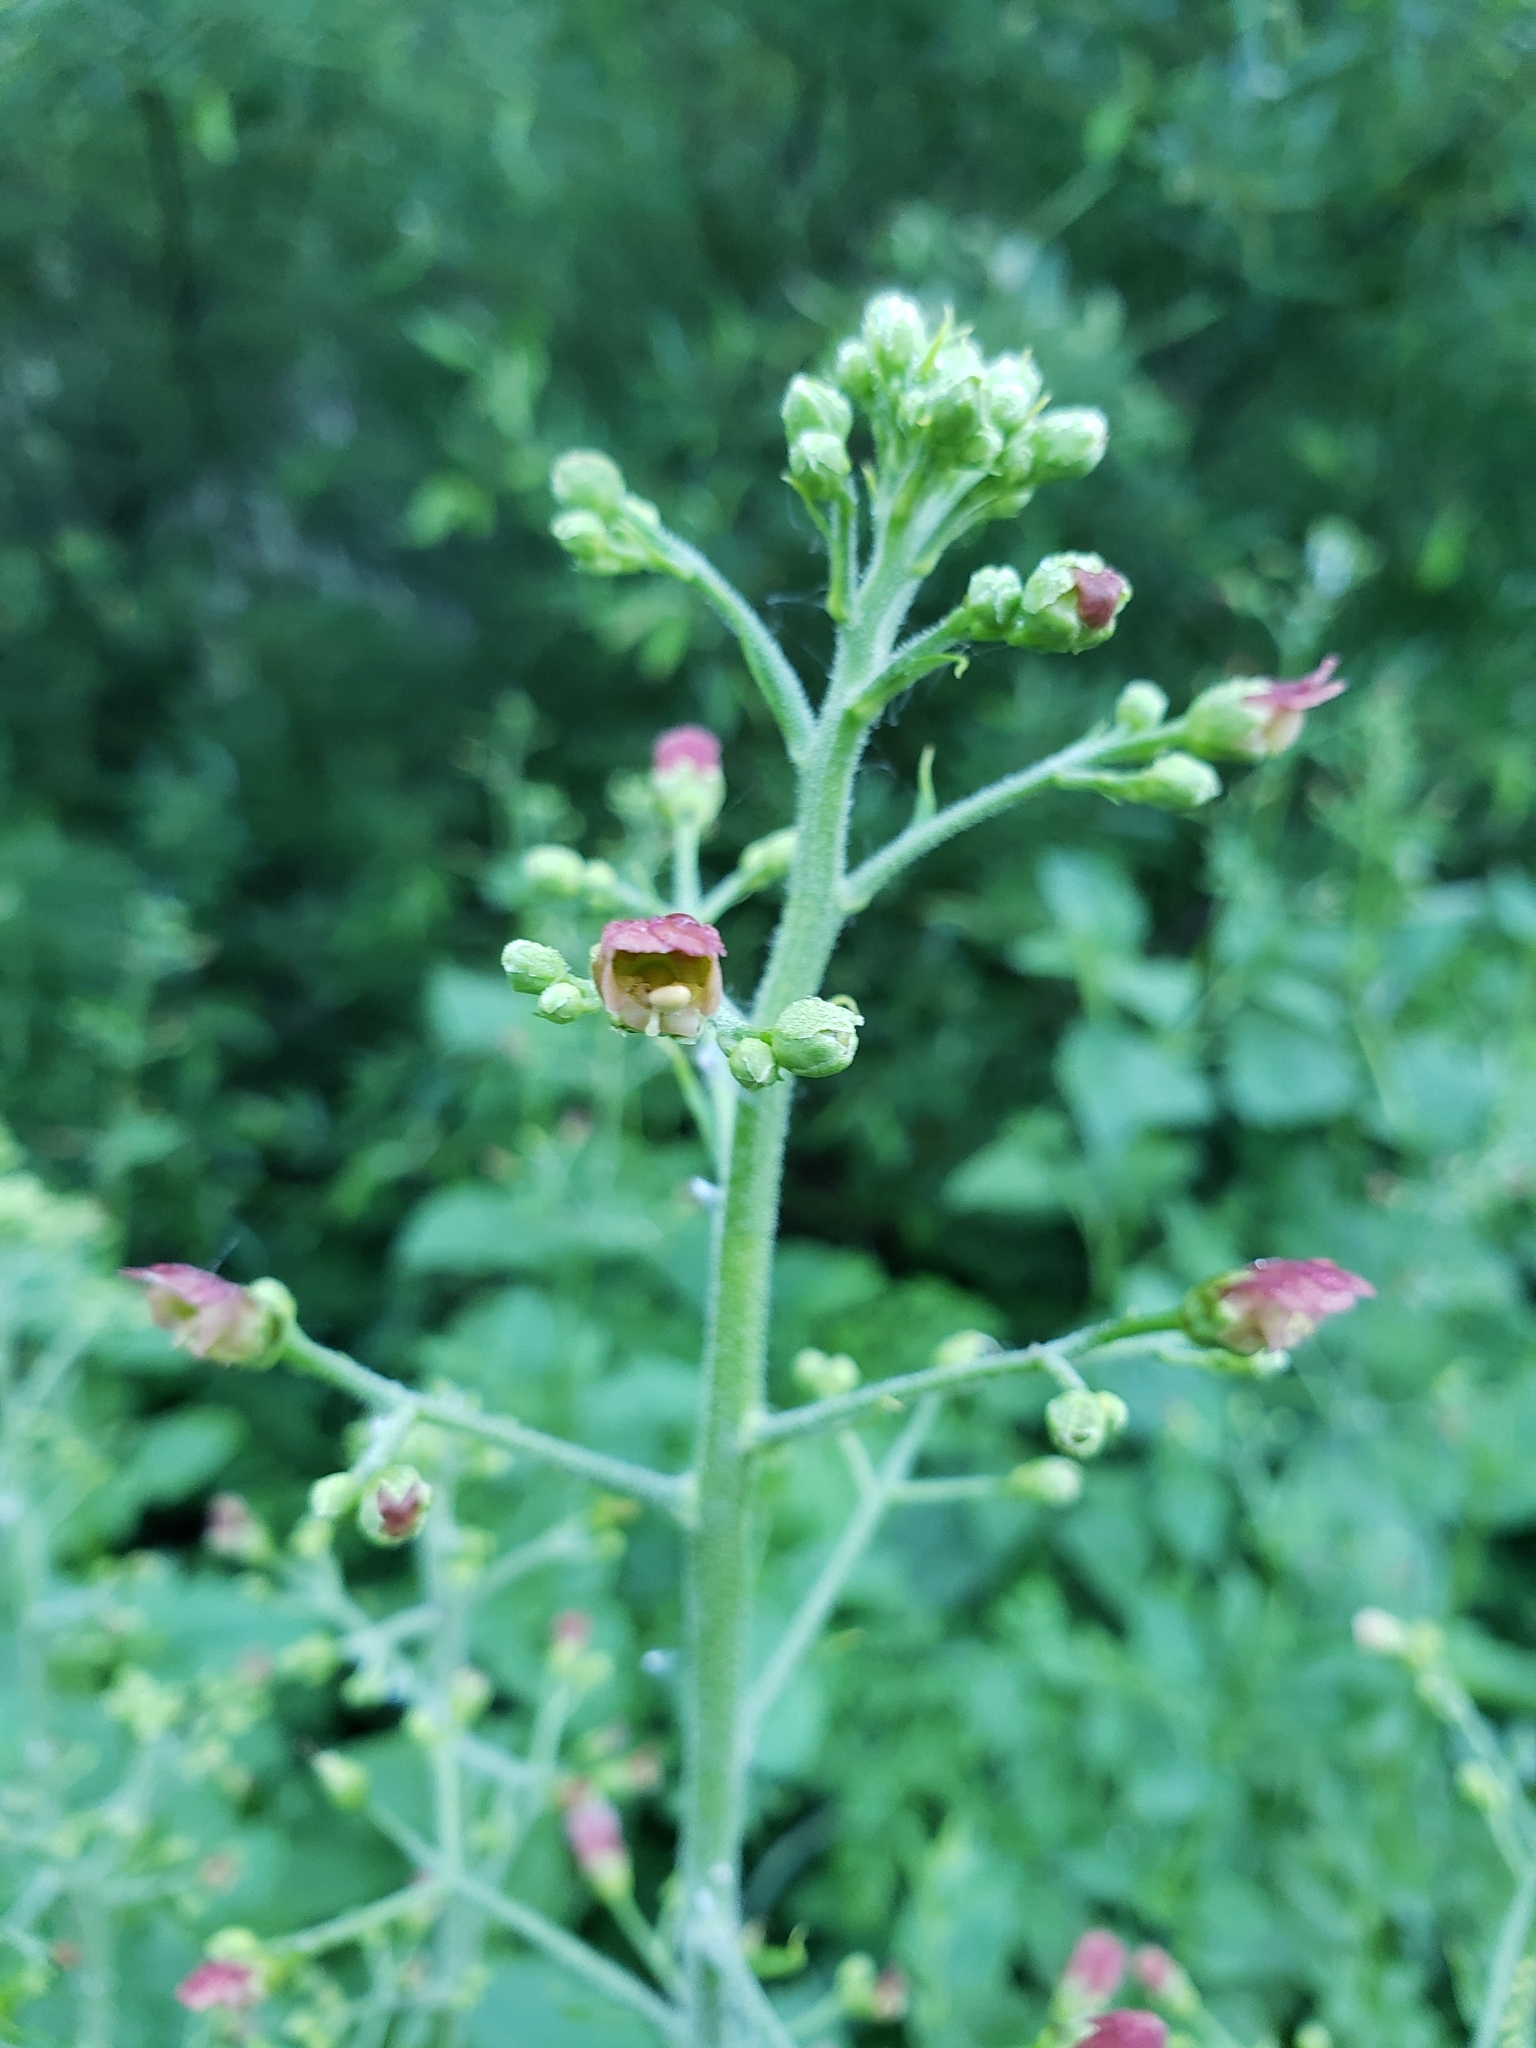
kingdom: Plantae
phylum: Tracheophyta
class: Magnoliopsida
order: Lamiales
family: Scrophulariaceae
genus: Scrophularia
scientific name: Scrophularia californica
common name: California figwort
